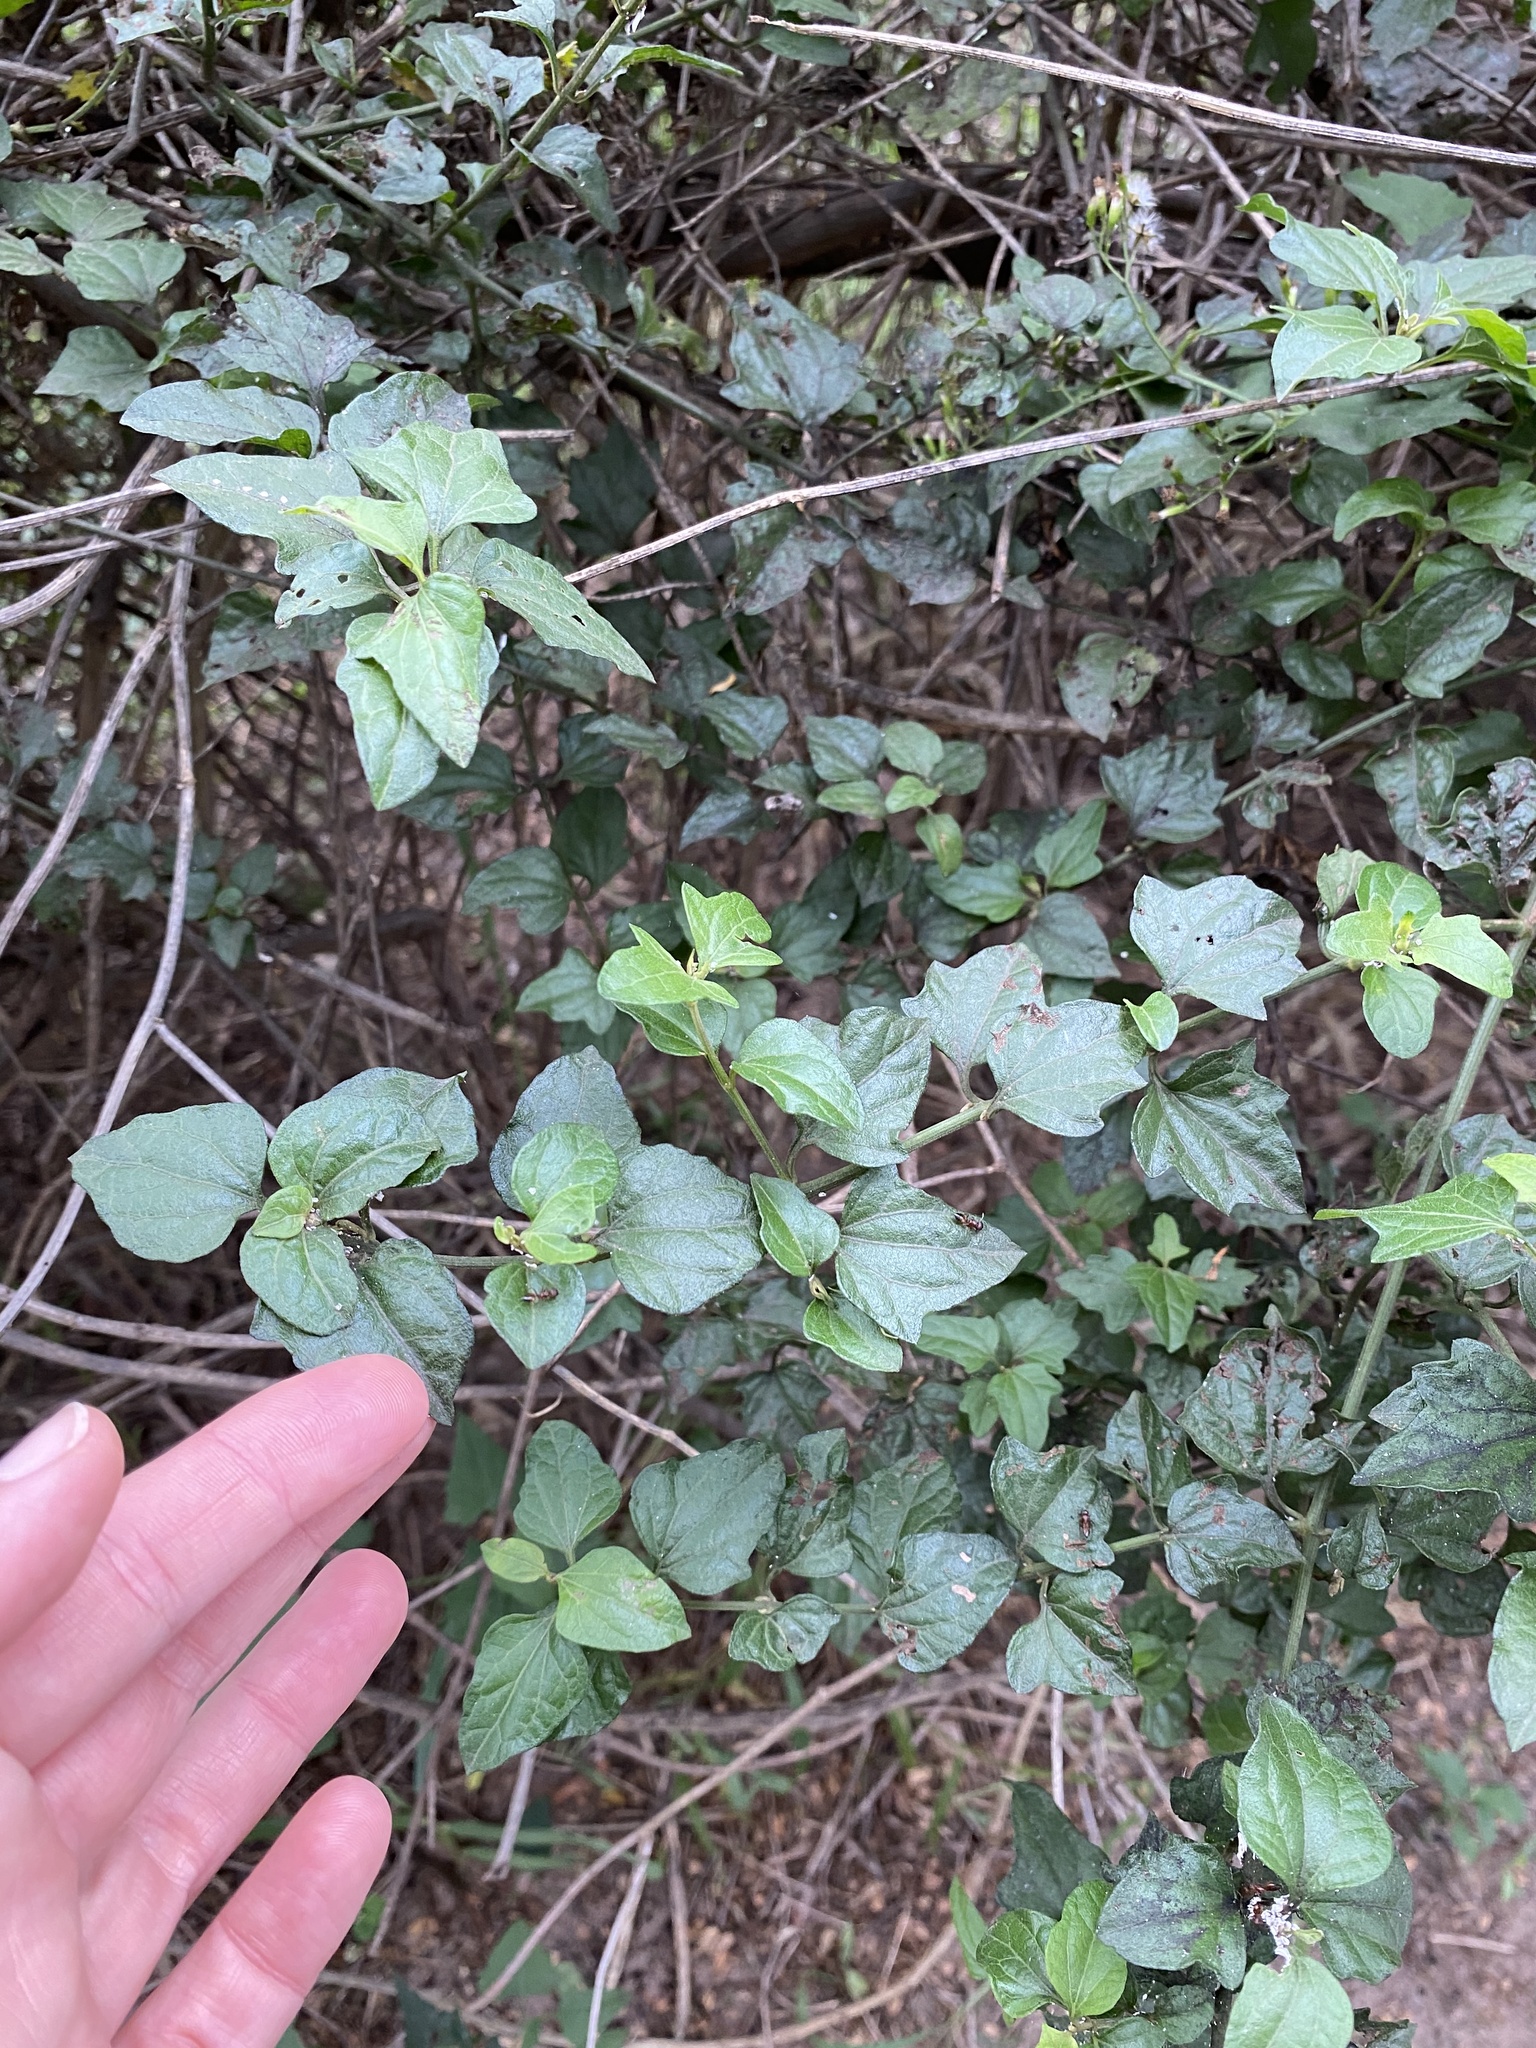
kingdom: Plantae
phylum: Tracheophyta
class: Magnoliopsida
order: Lamiales
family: Acanthaceae
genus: Asystasia
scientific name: Asystasia intrusa
